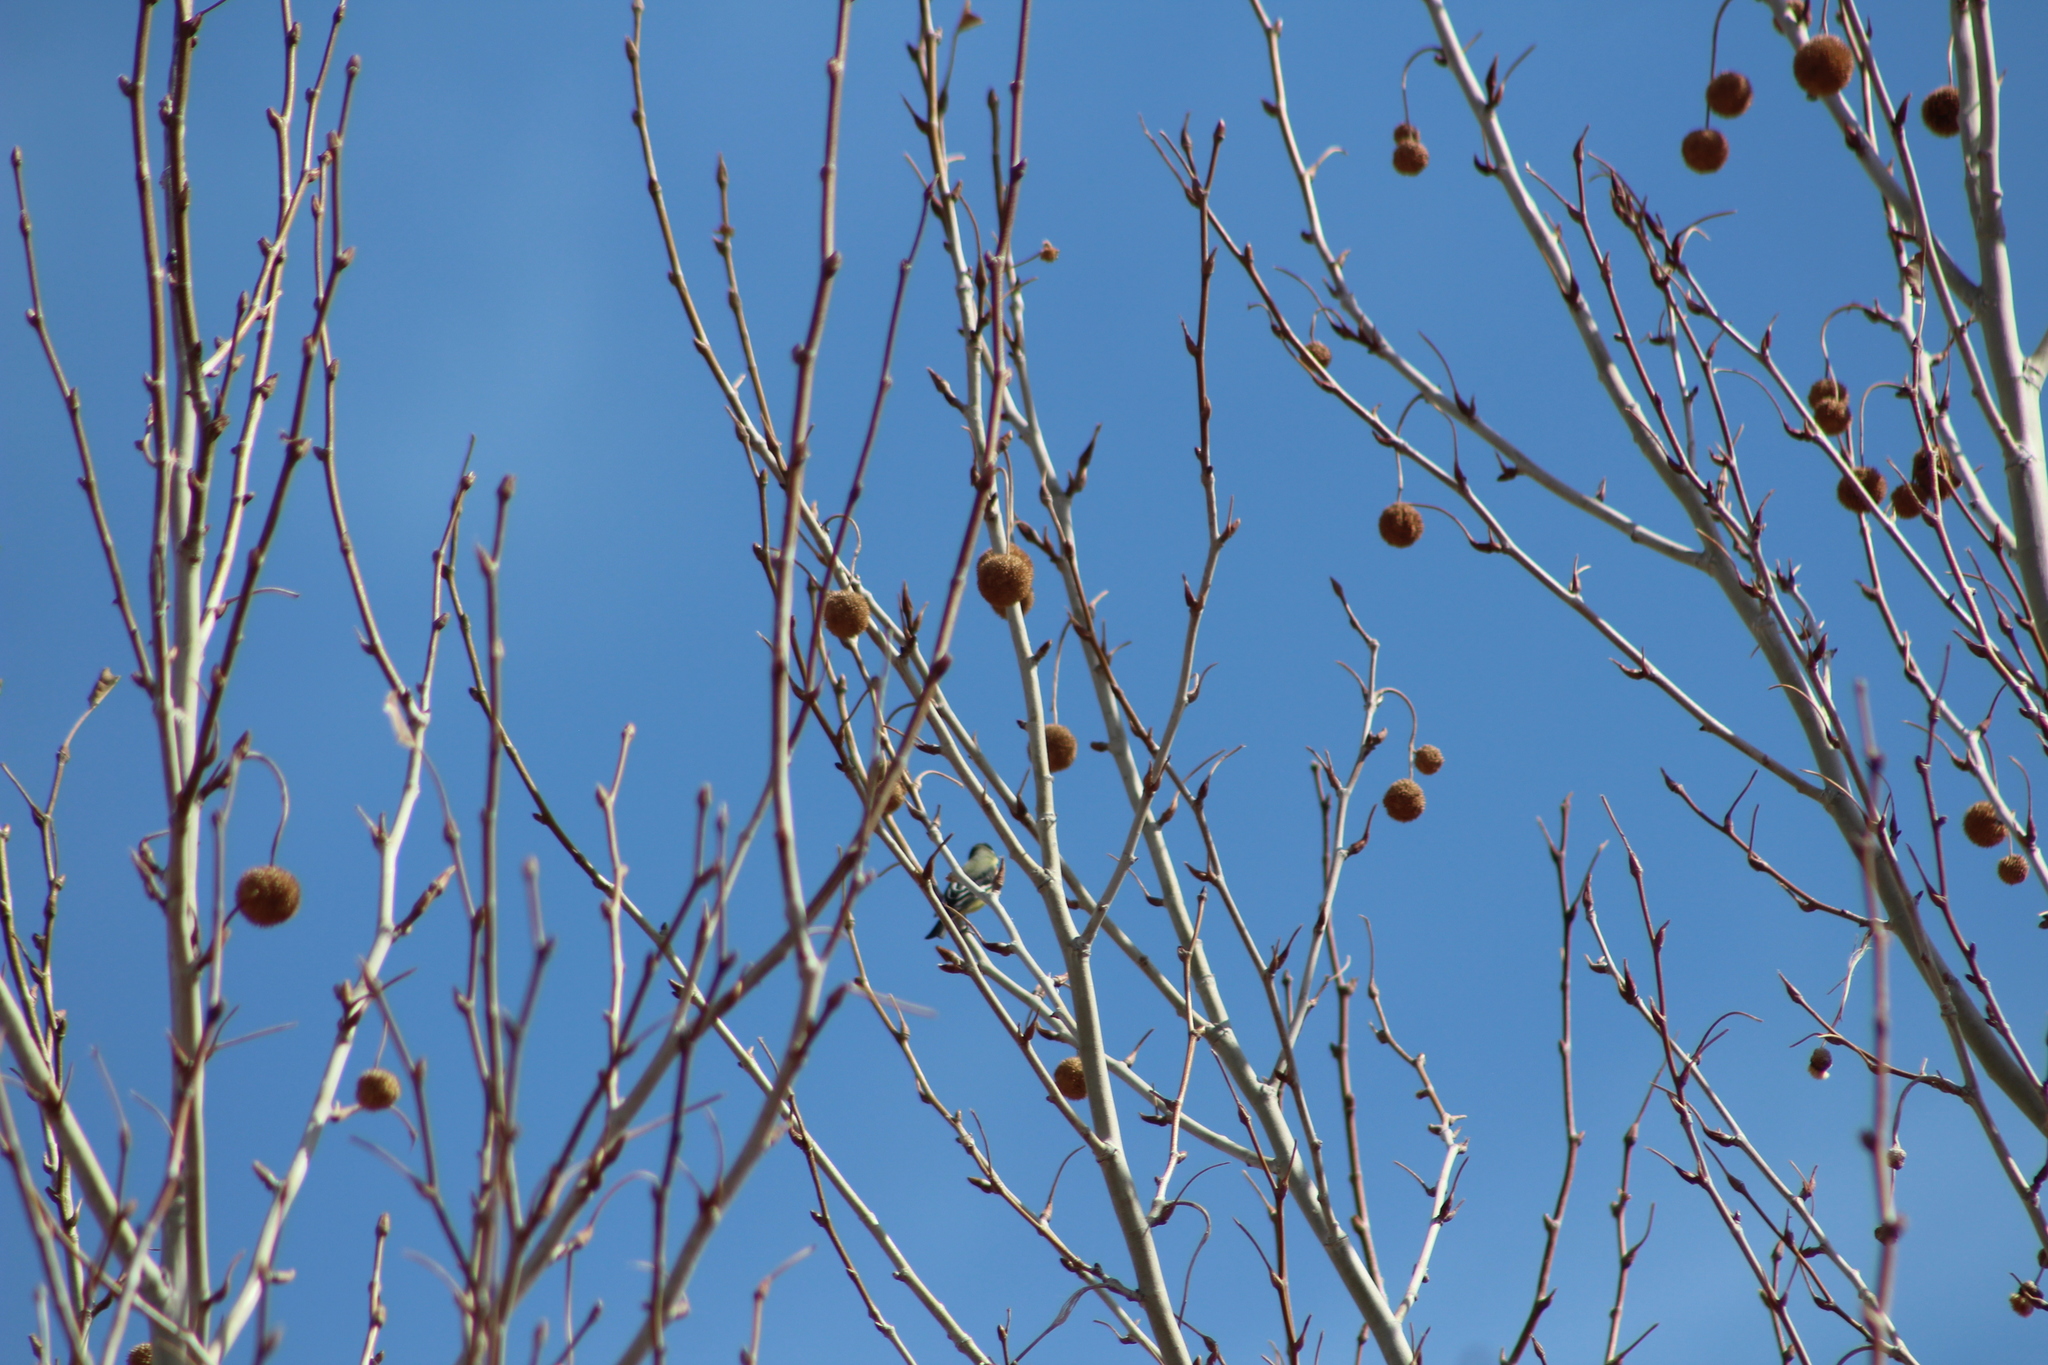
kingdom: Animalia
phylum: Chordata
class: Aves
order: Passeriformes
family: Fringillidae
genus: Spinus
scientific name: Spinus psaltria
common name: Lesser goldfinch
